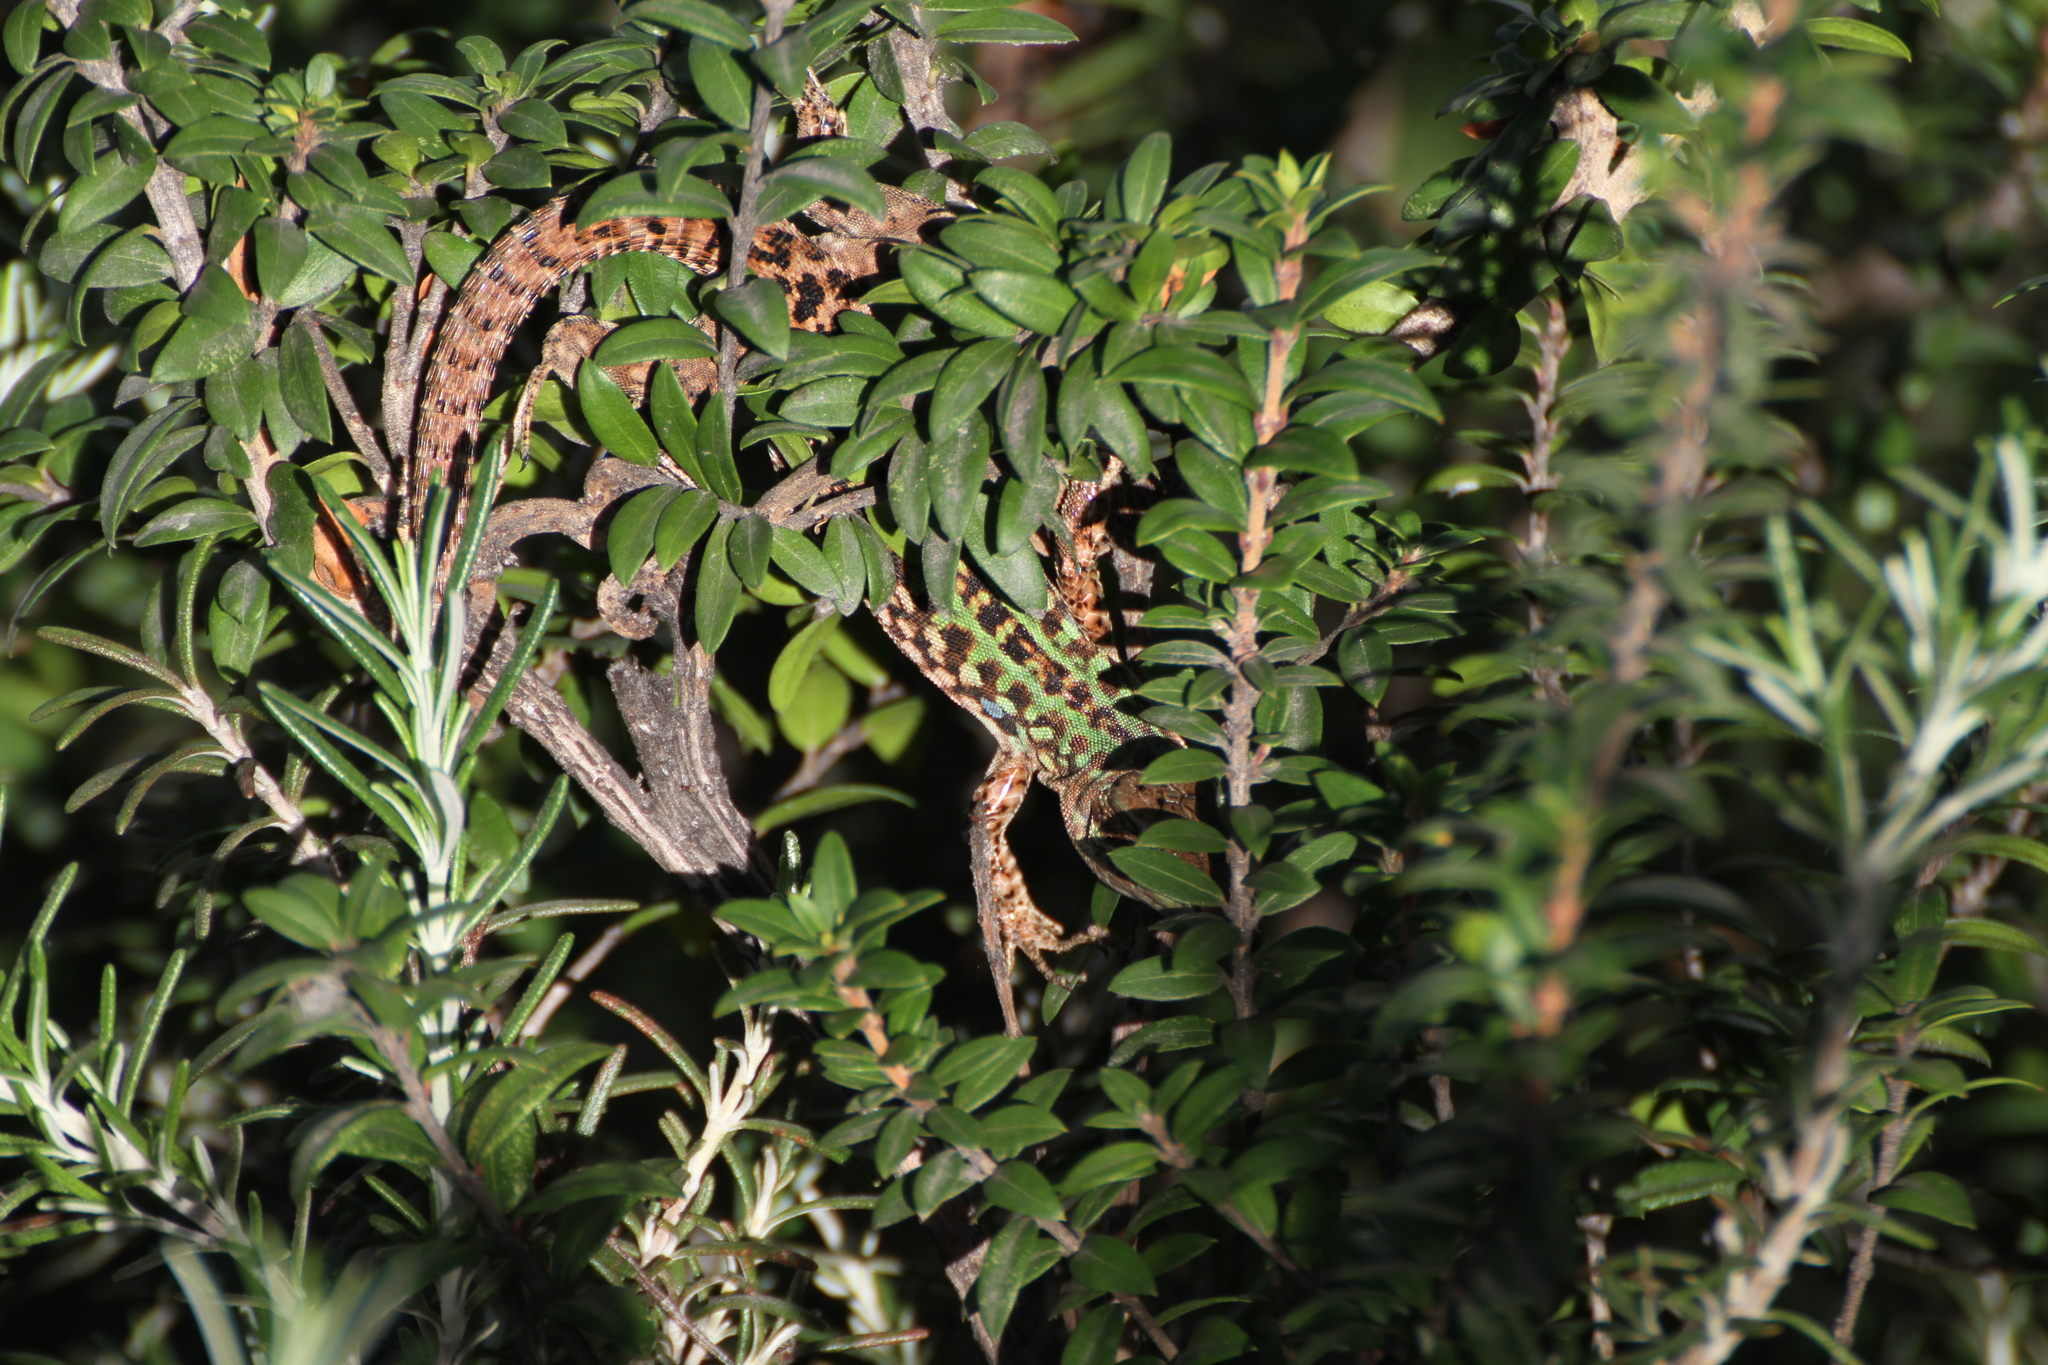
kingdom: Animalia
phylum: Chordata
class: Squamata
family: Lacertidae
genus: Podarcis
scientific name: Podarcis siculus
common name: Italian wall lizard
